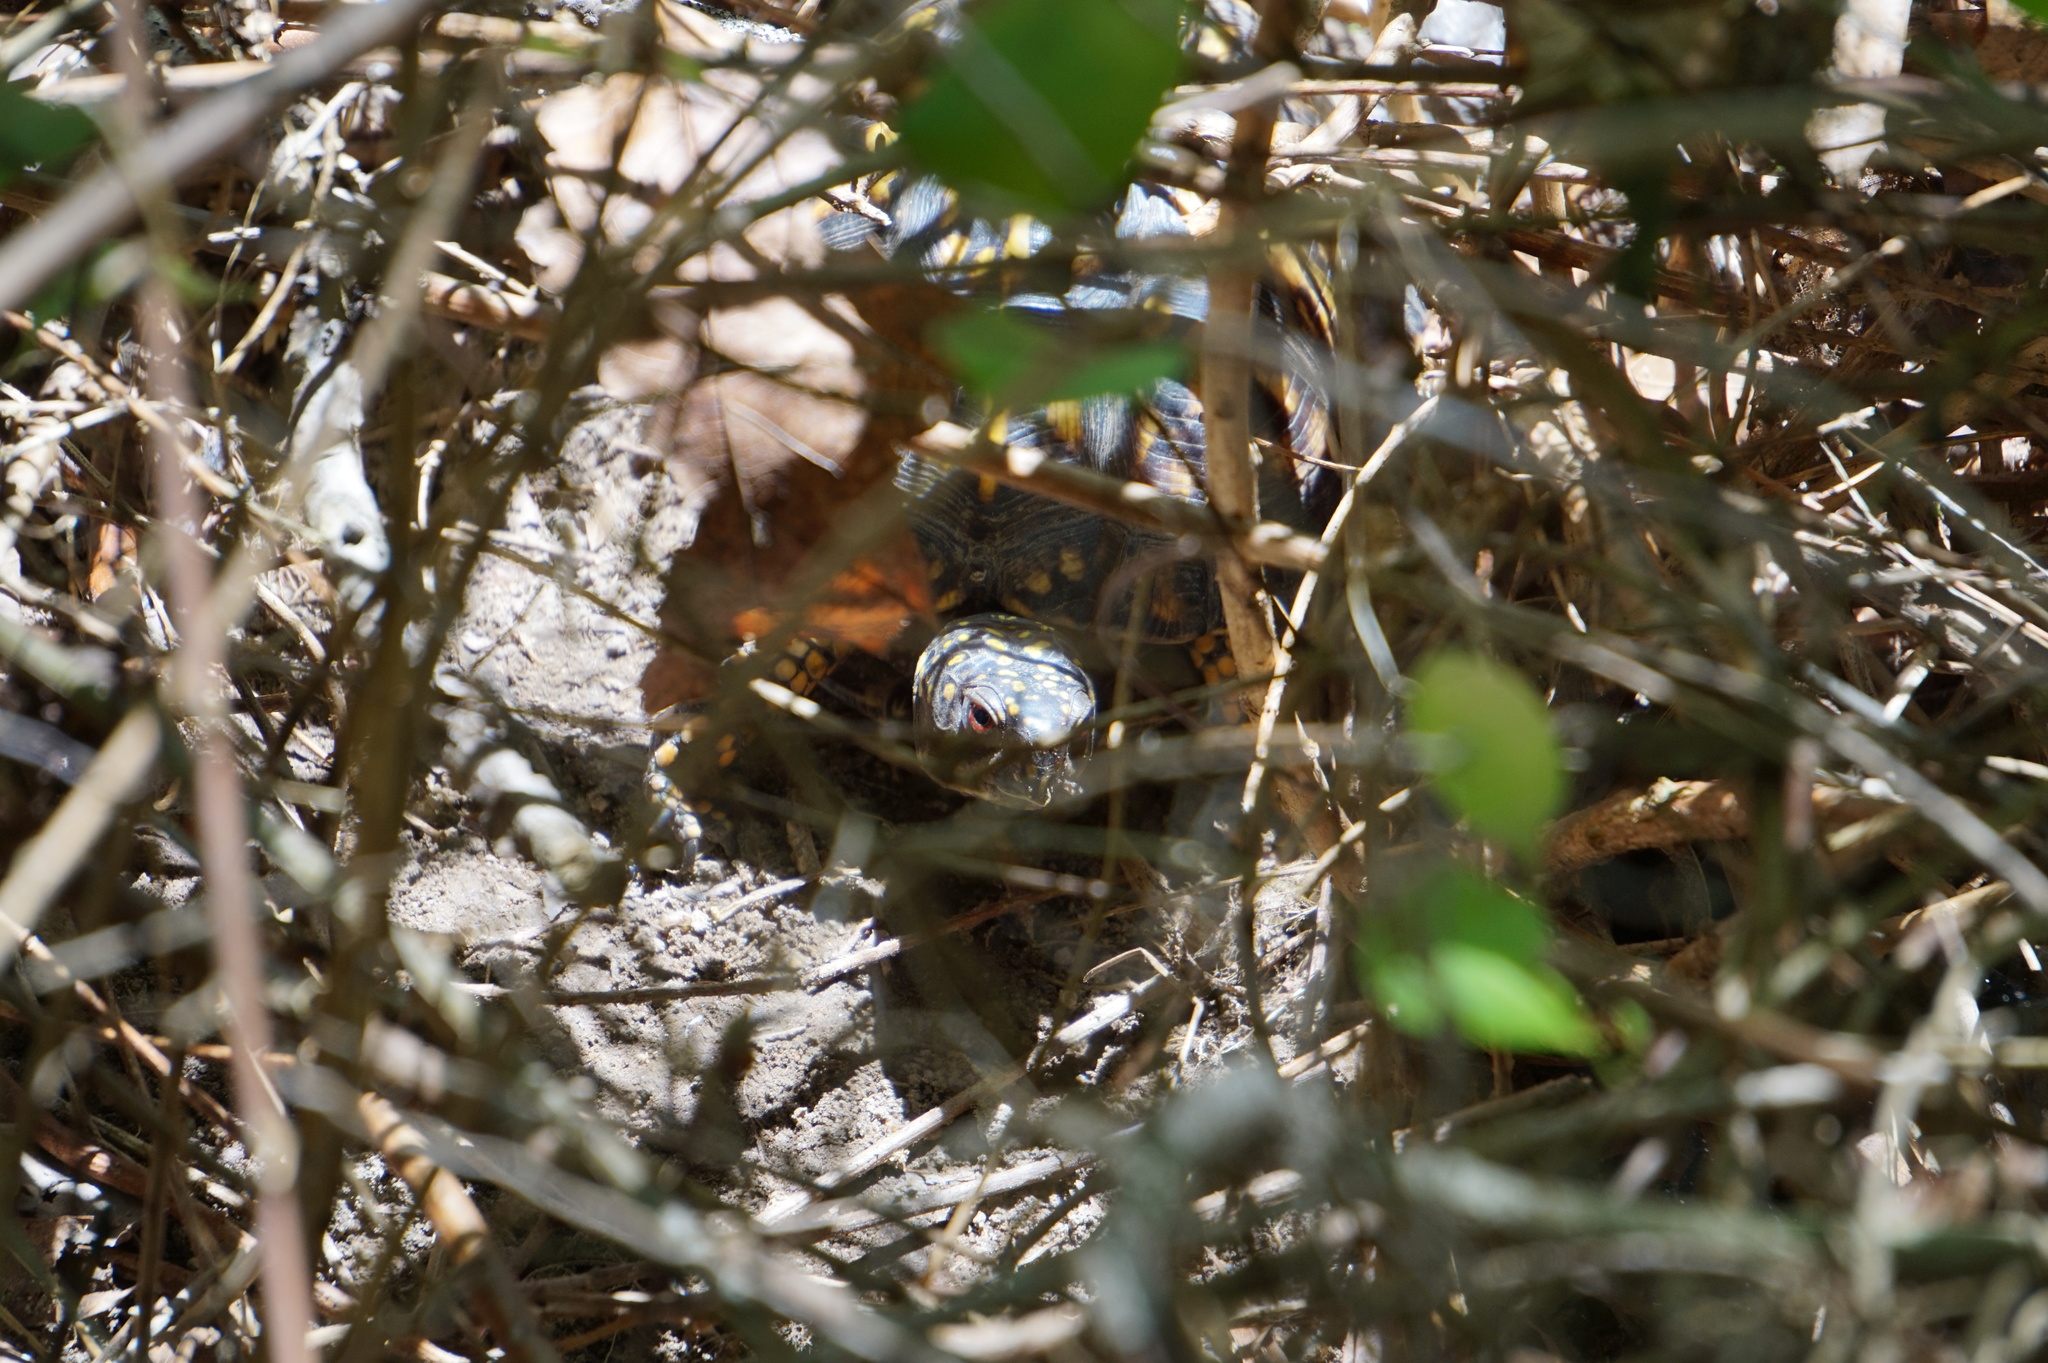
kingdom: Animalia
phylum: Chordata
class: Testudines
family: Emydidae
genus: Terrapene
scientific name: Terrapene carolina
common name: Common box turtle
